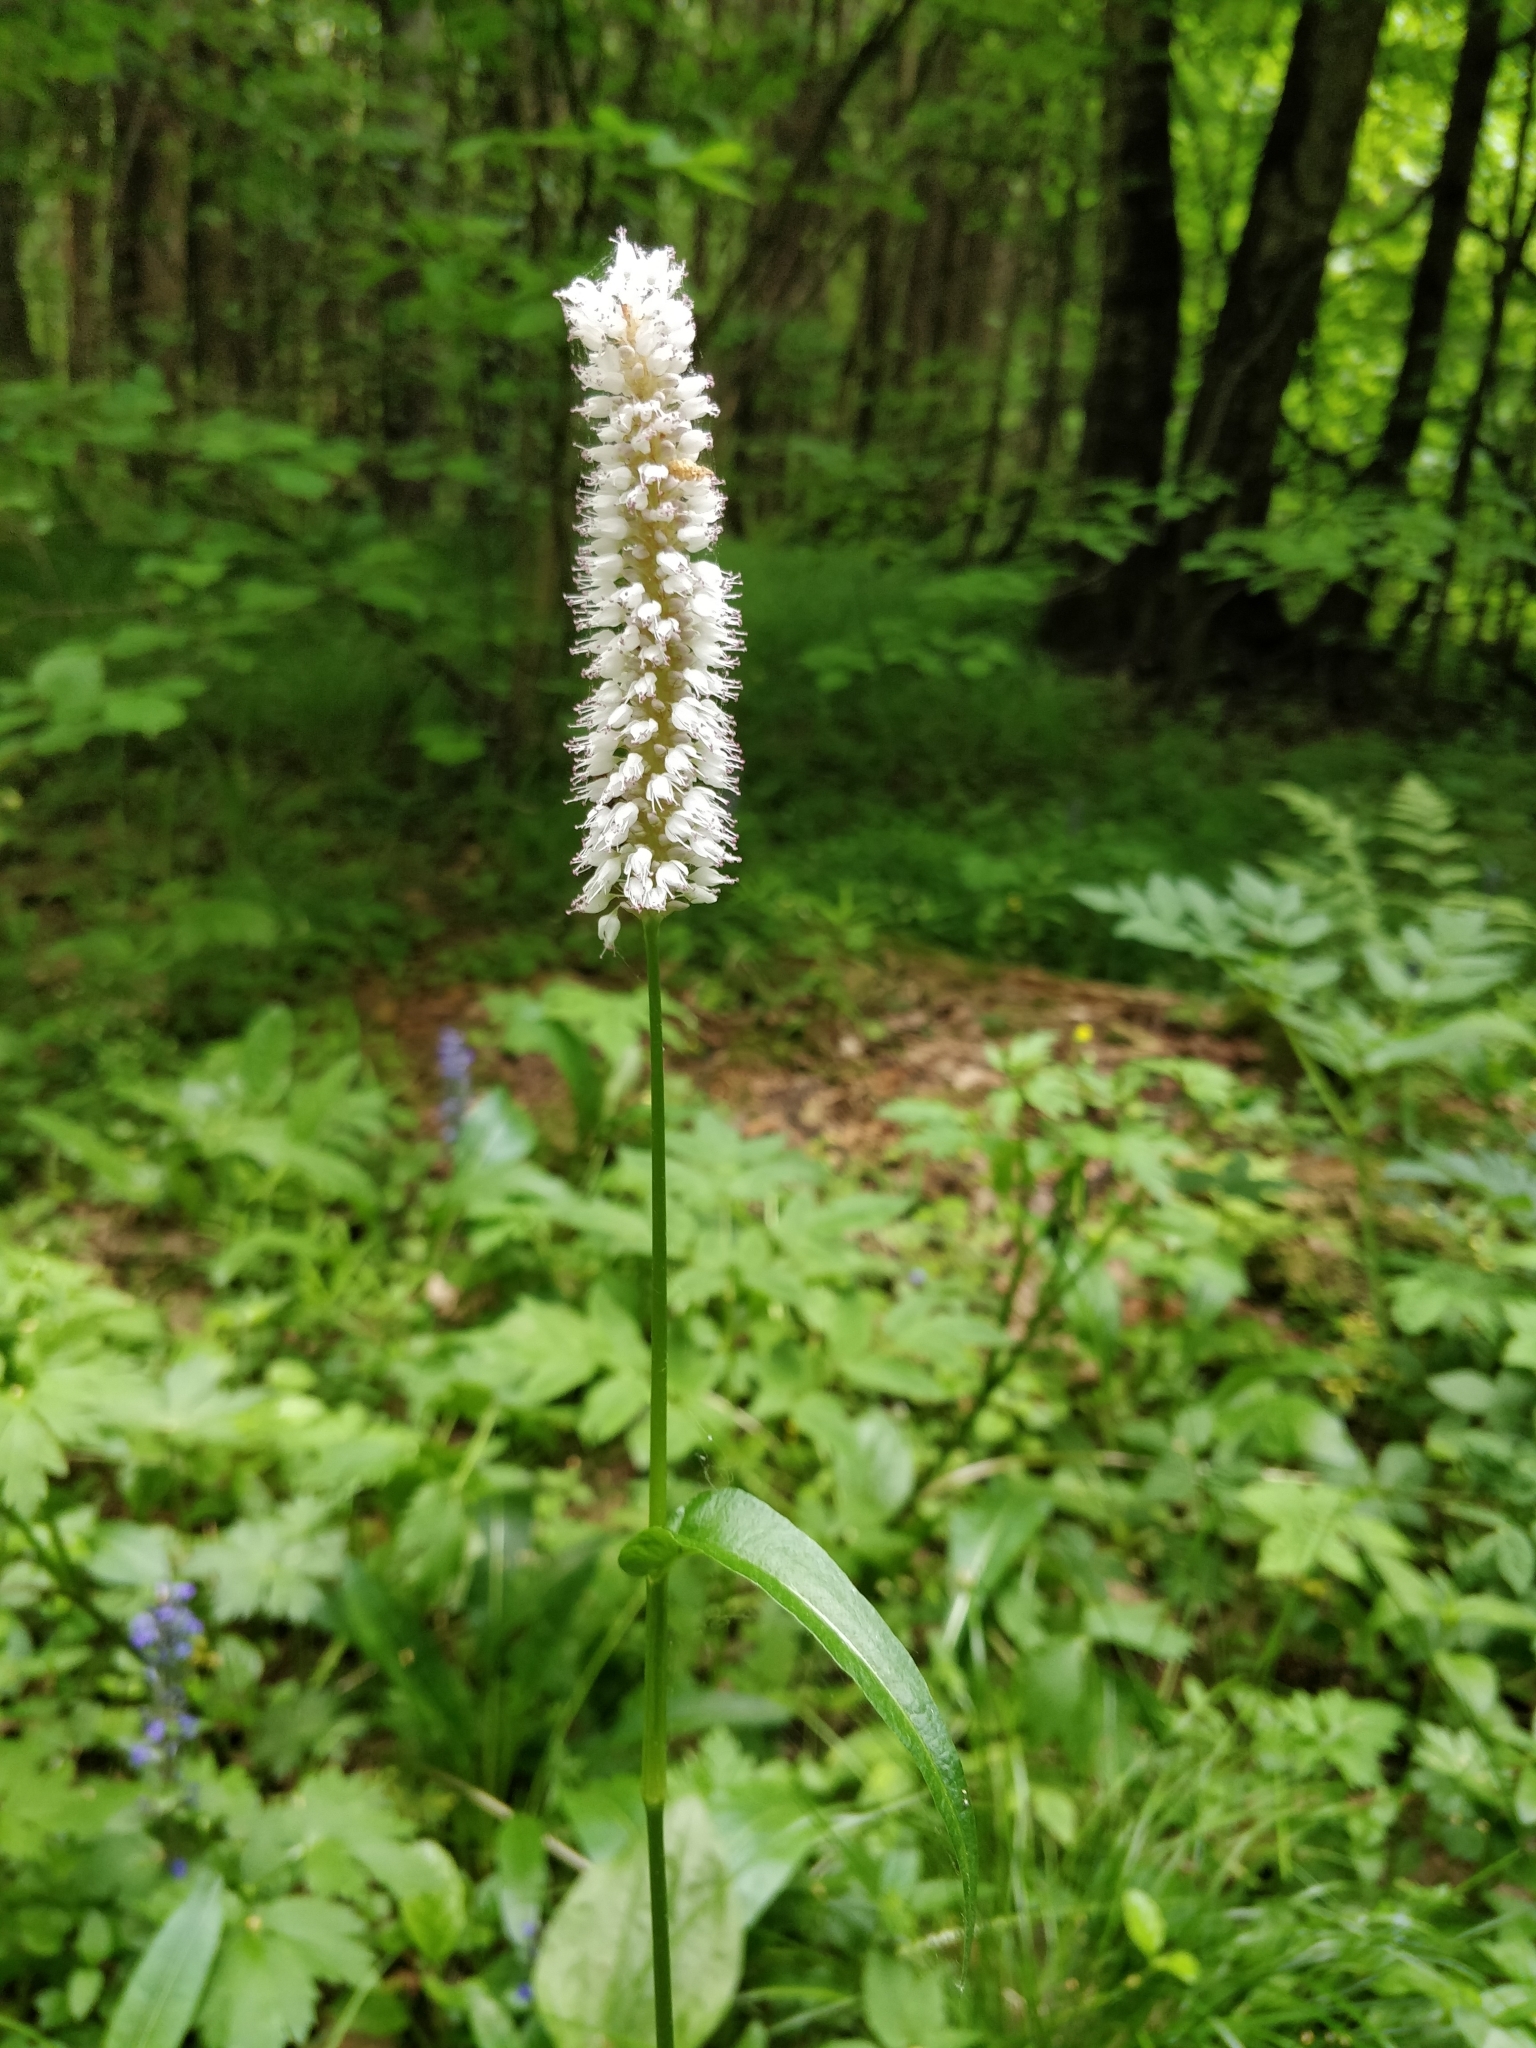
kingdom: Plantae
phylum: Tracheophyta
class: Magnoliopsida
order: Caryophyllales
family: Polygonaceae
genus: Bistorta
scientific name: Bistorta officinalis
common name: Common bistort
